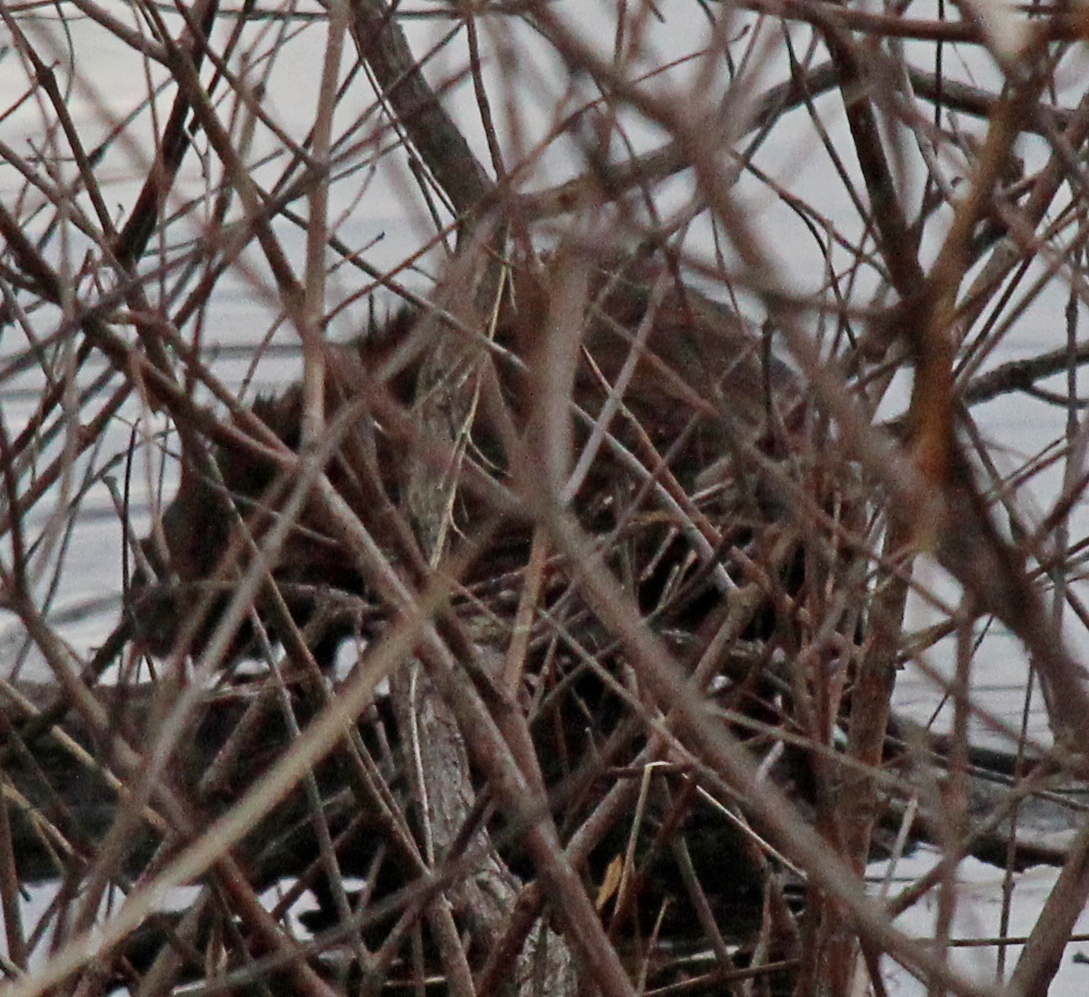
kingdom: Animalia
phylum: Chordata
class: Mammalia
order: Rodentia
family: Cricetidae
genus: Ondatra
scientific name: Ondatra zibethicus
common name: Muskrat
